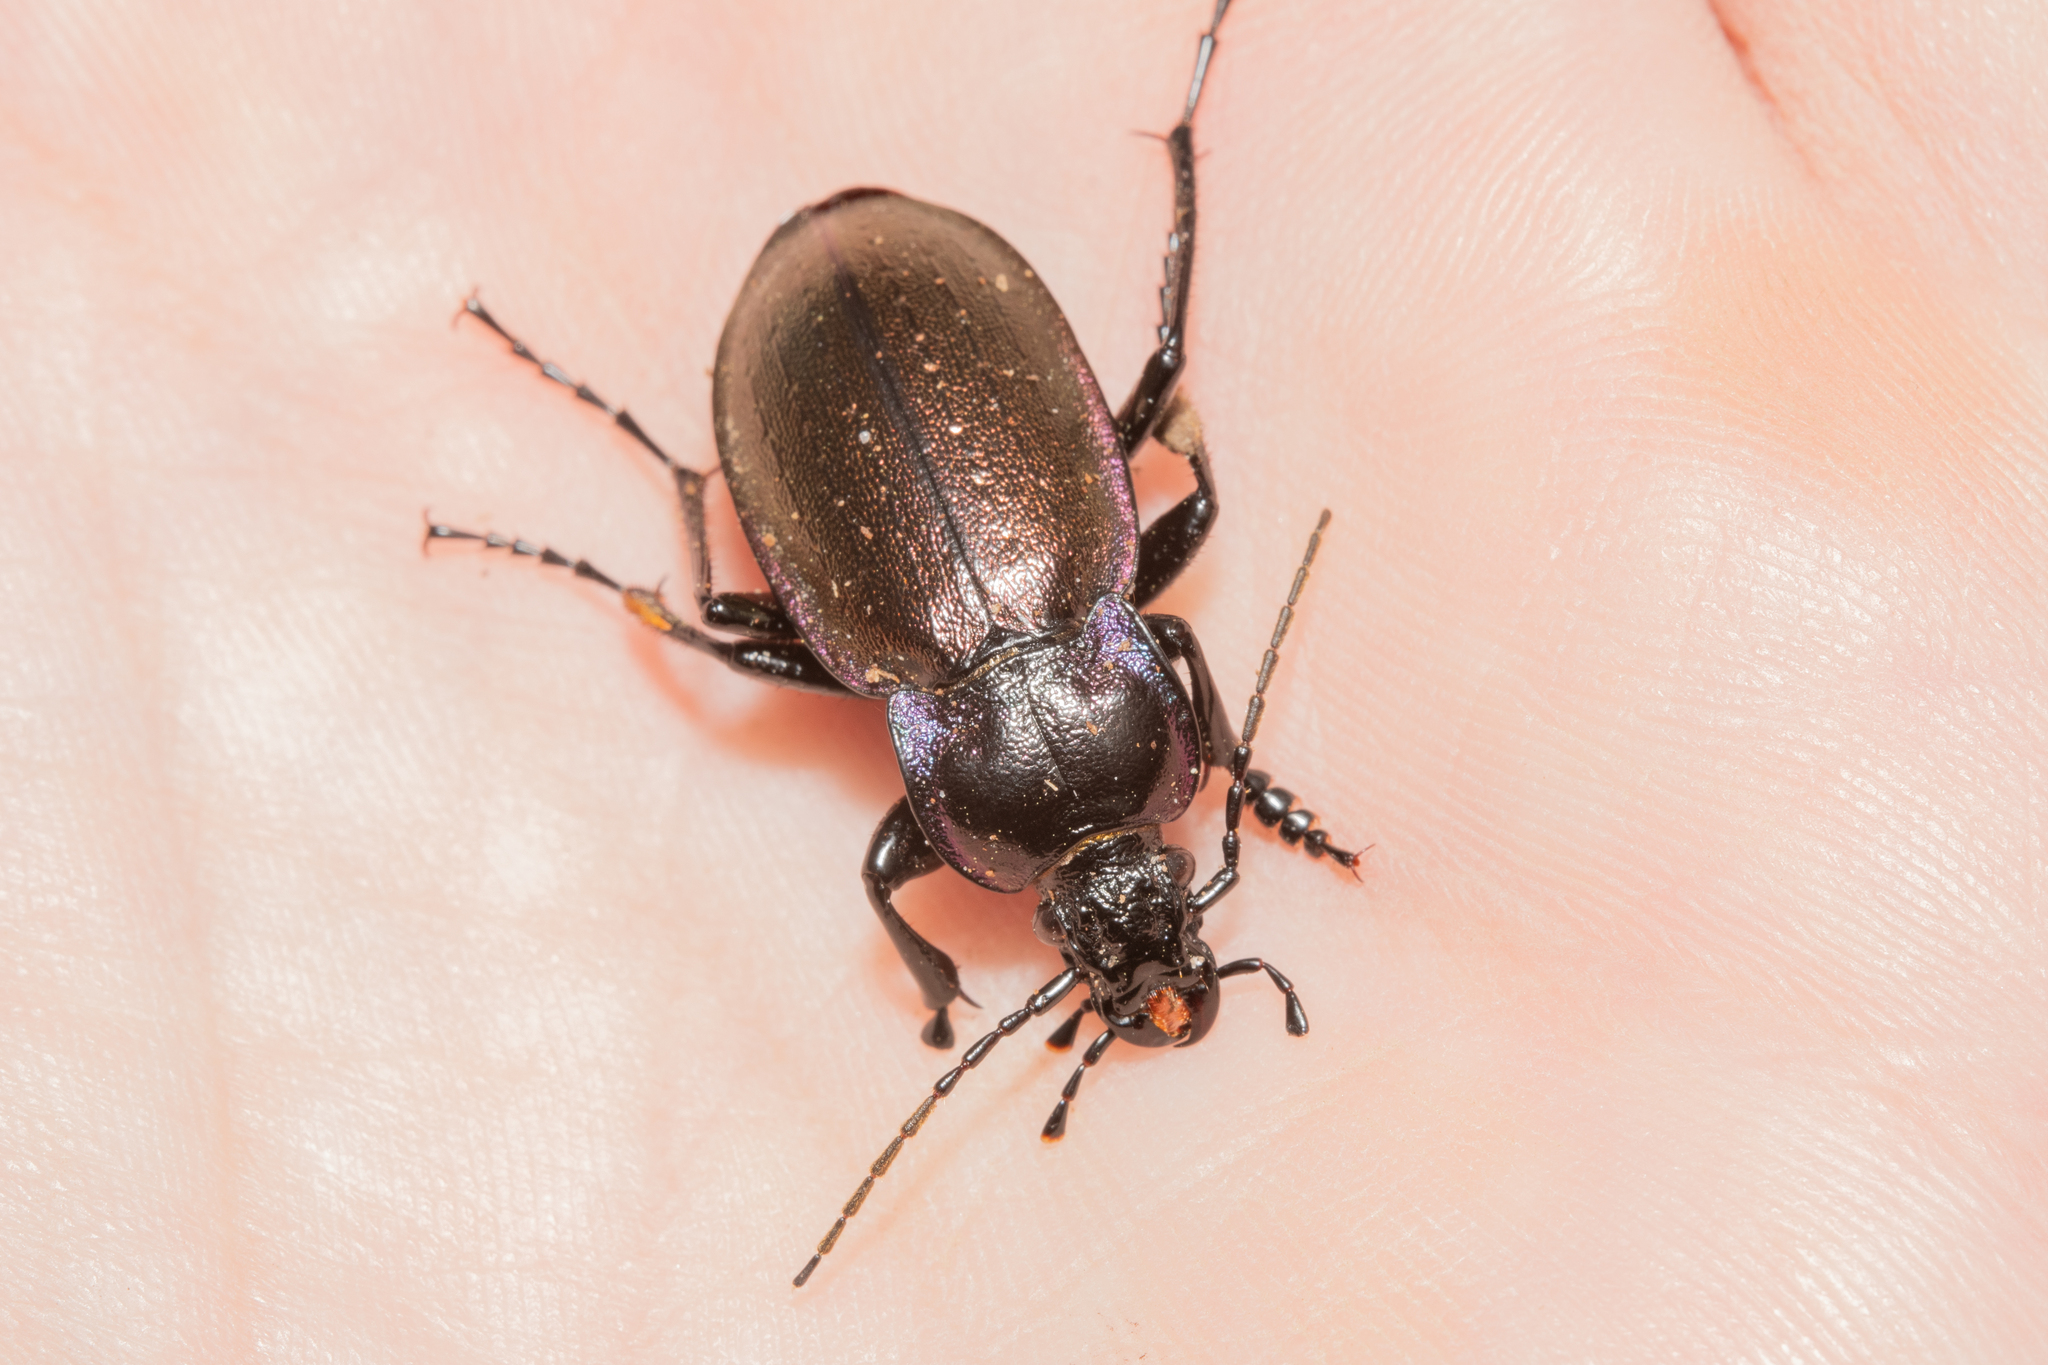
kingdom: Animalia
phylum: Arthropoda
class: Insecta
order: Coleoptera
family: Carabidae
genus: Carabus
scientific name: Carabus nemoralis
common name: European ground beetle
